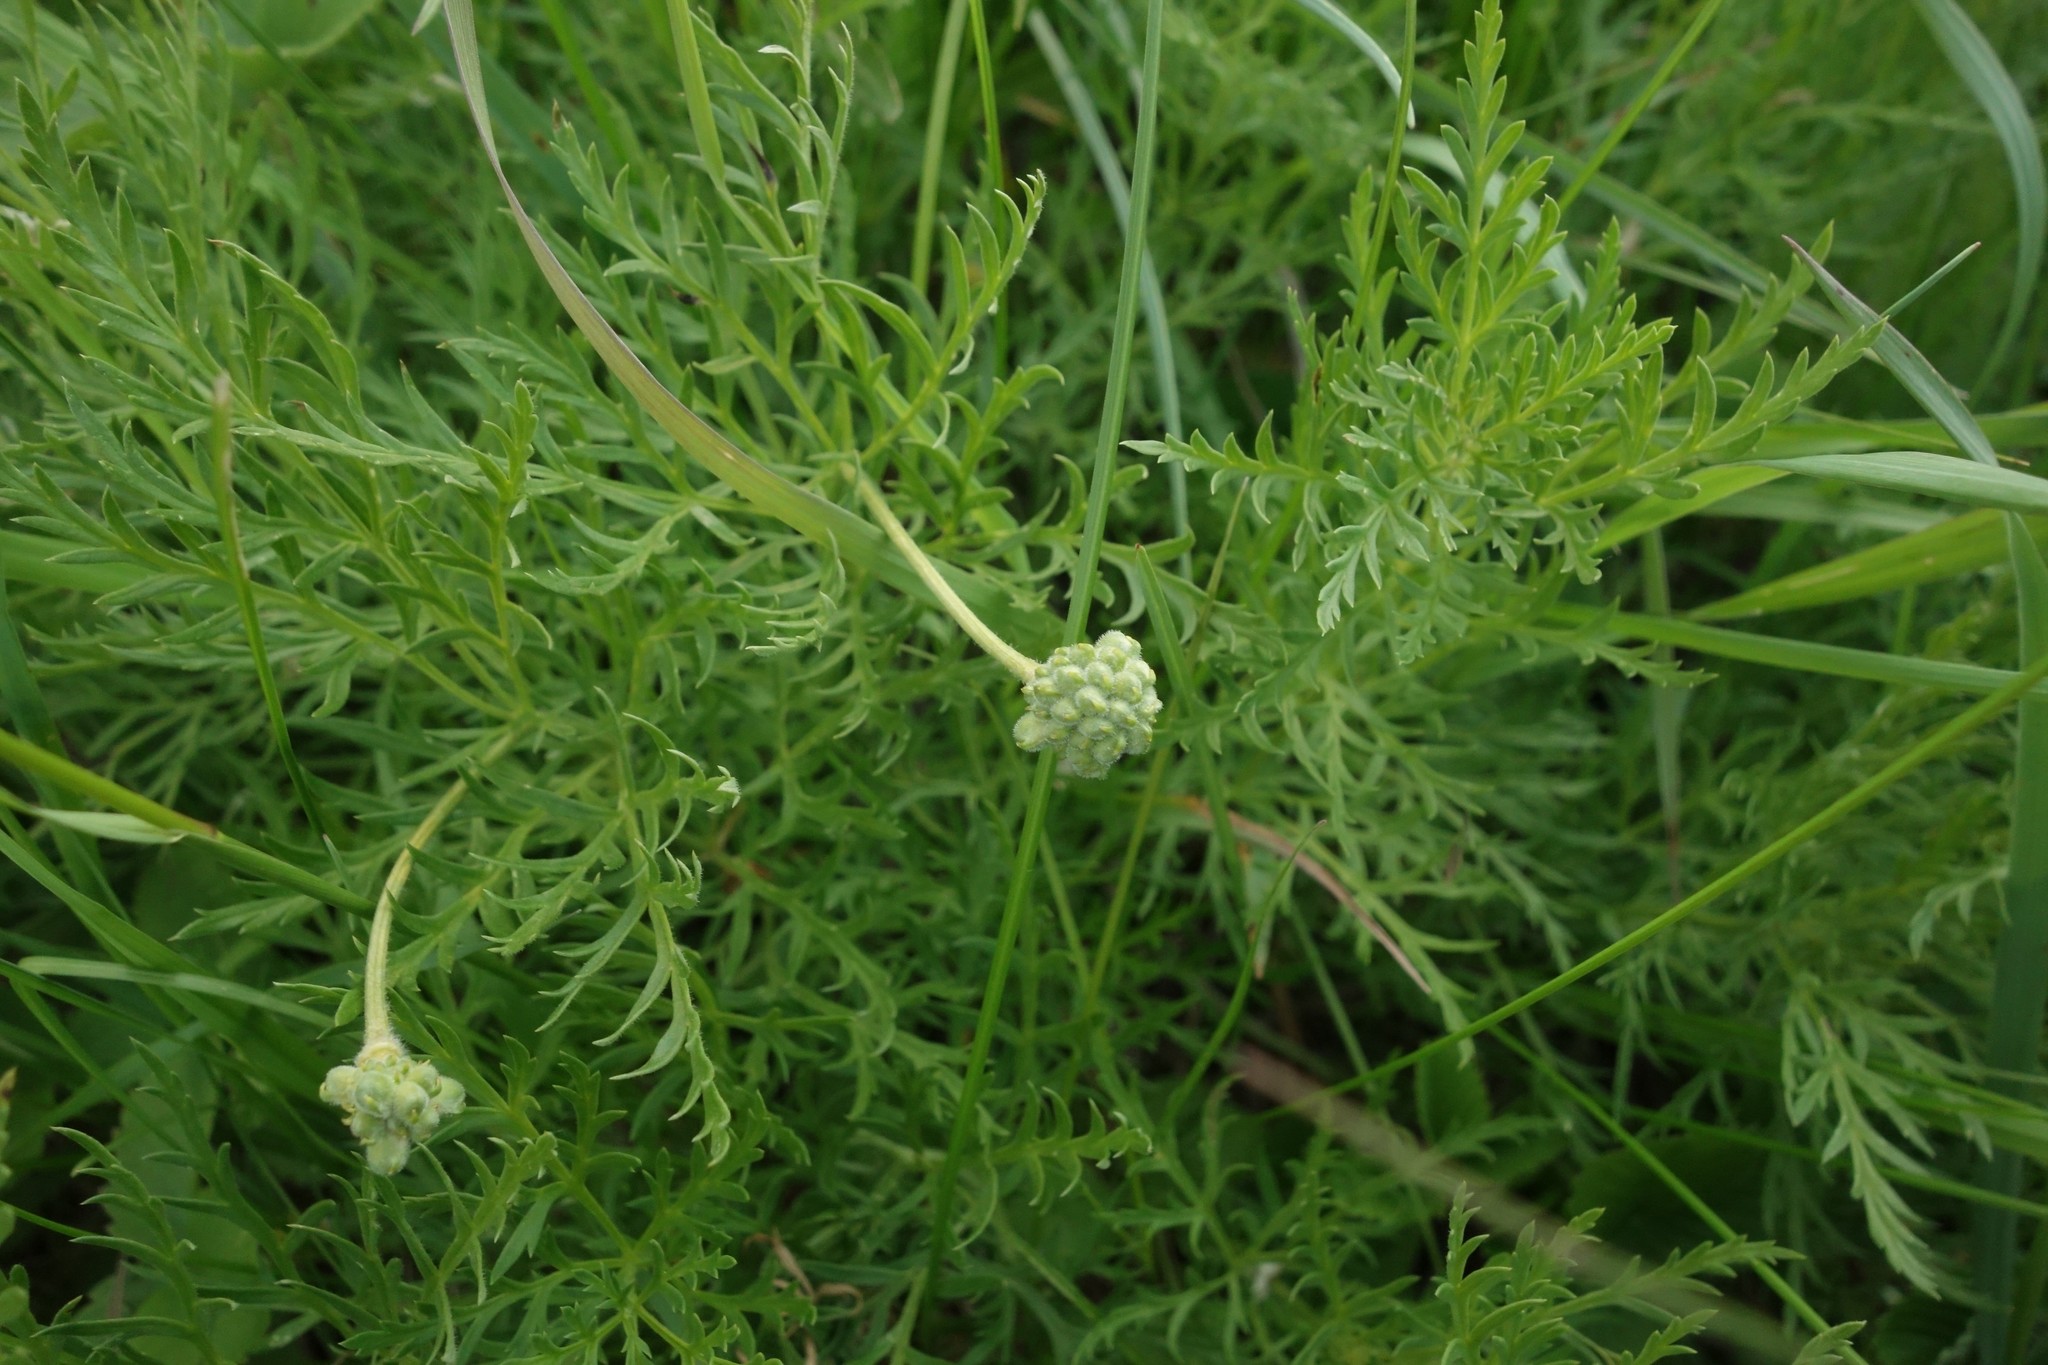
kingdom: Plantae
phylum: Tracheophyta
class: Magnoliopsida
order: Ranunculales
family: Ranunculaceae
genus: Adonis
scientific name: Adonis volgensis
